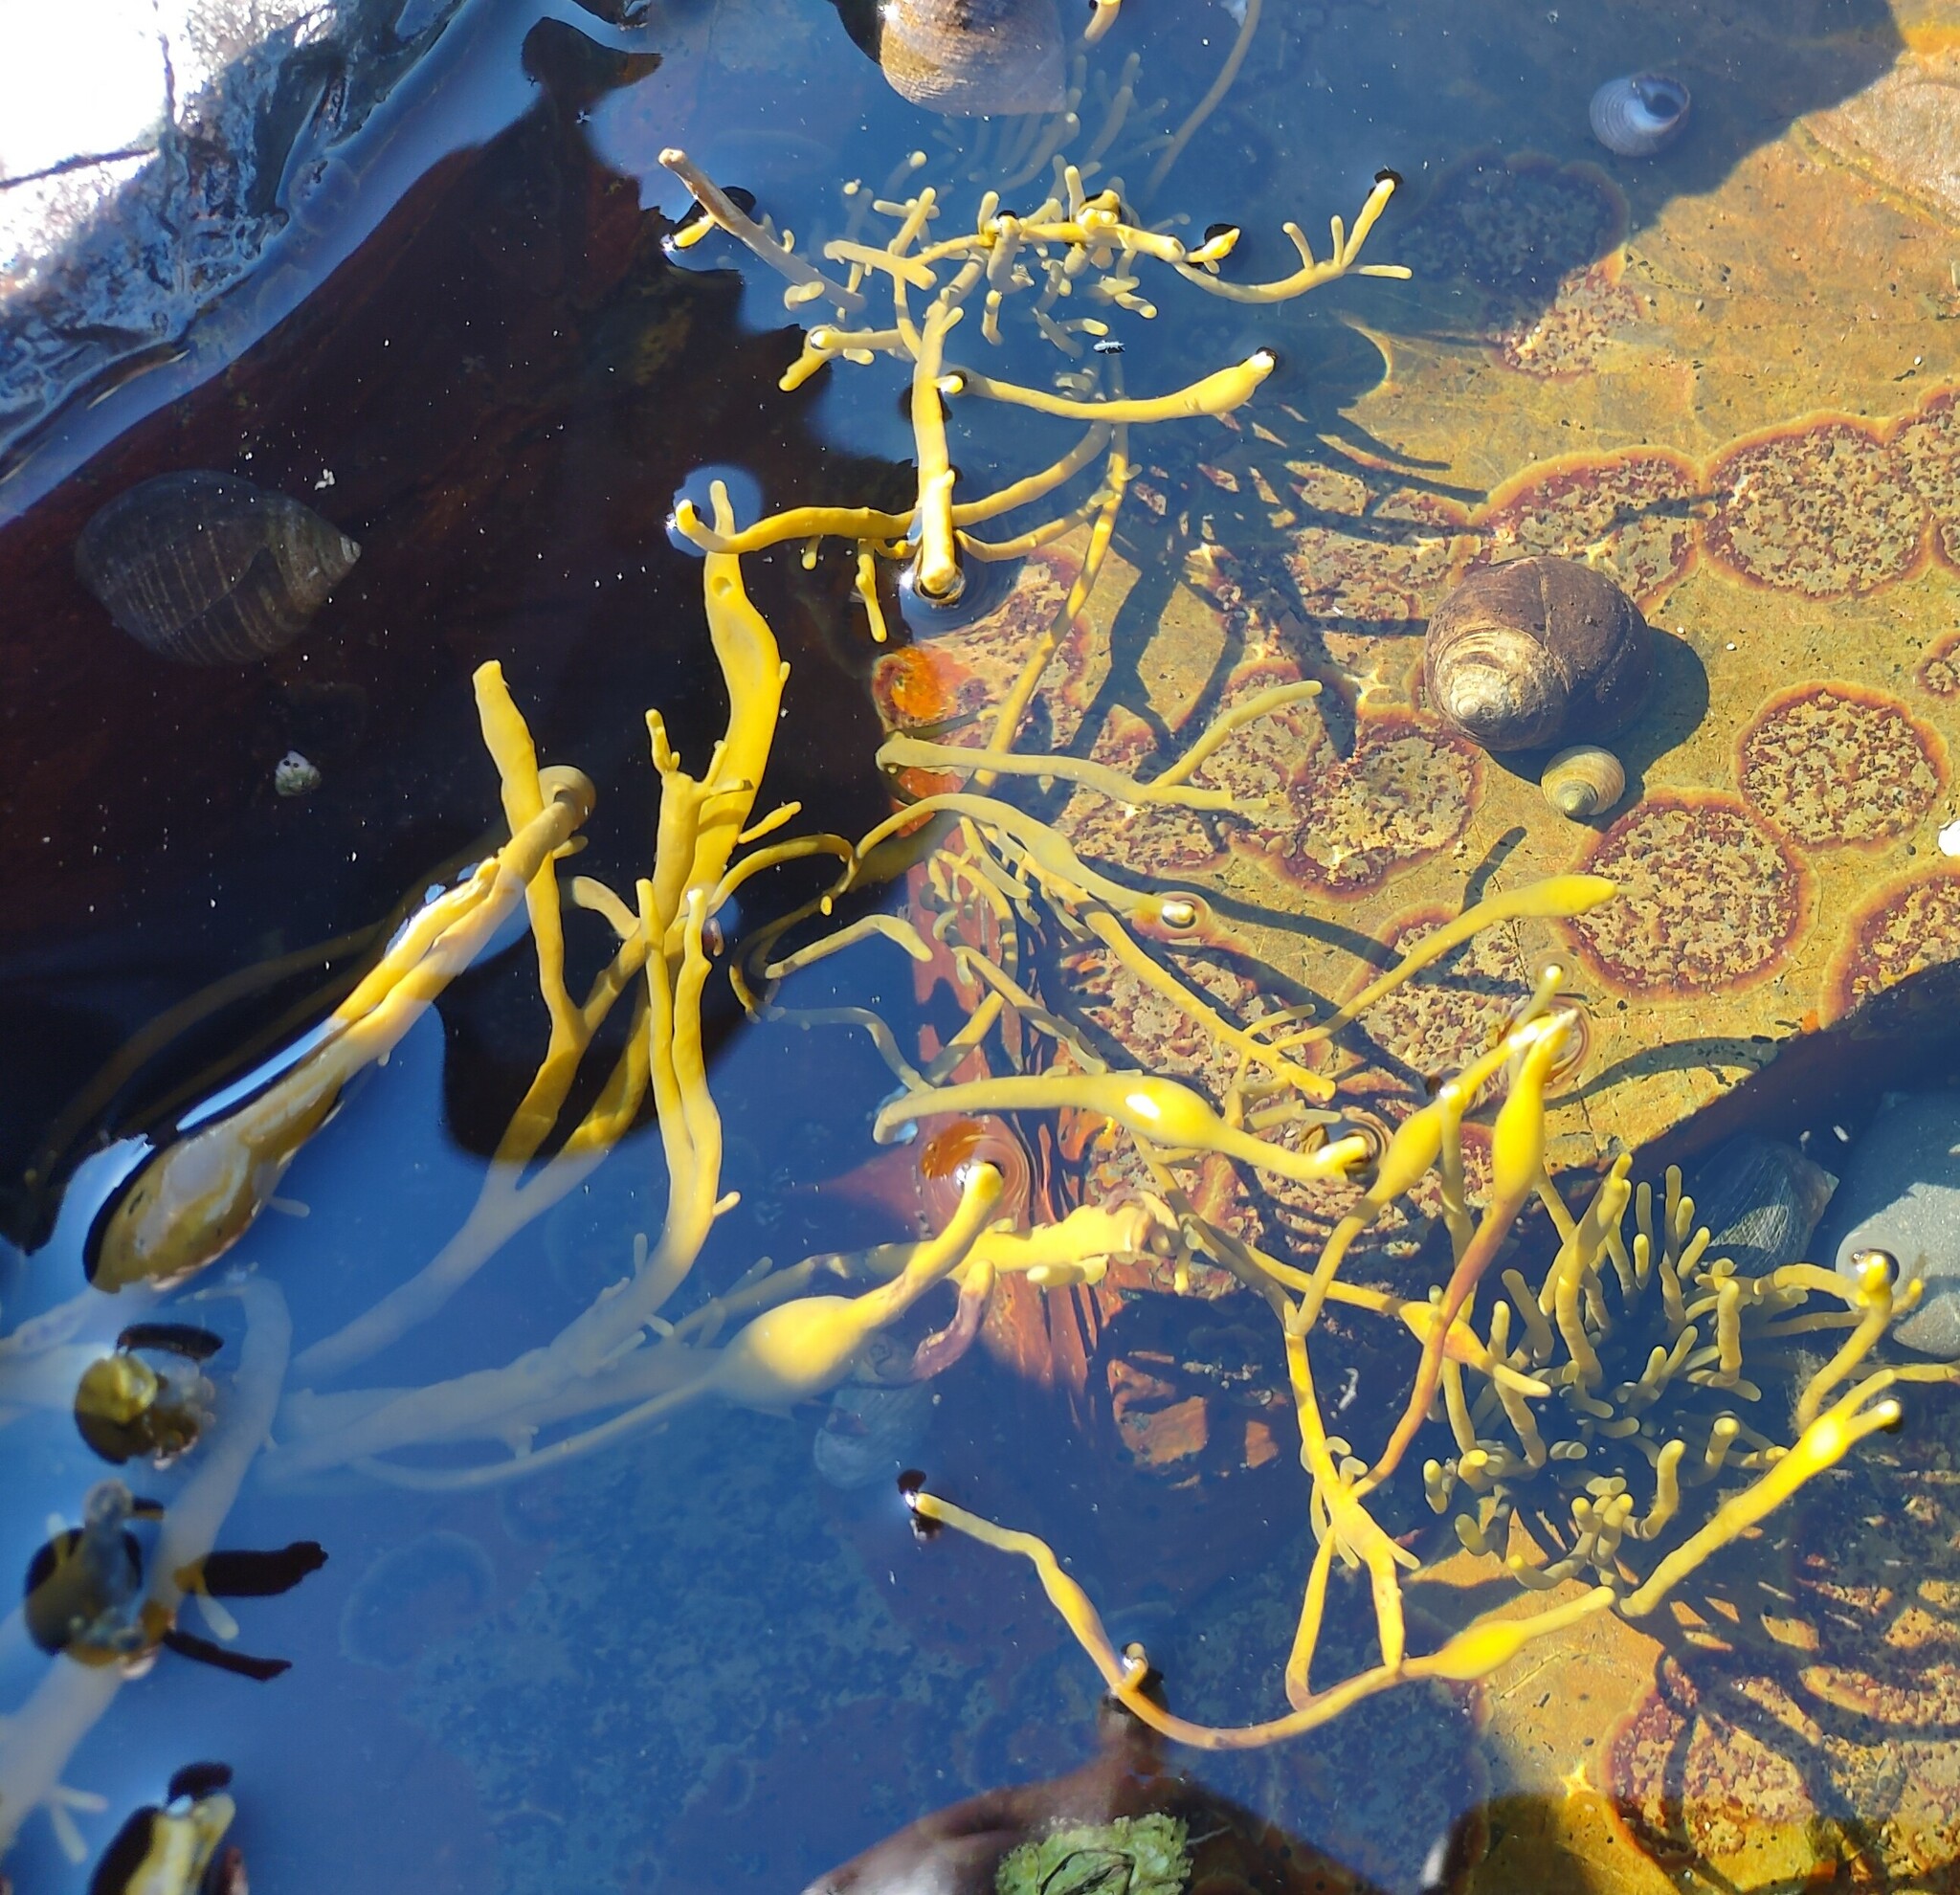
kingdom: Chromista
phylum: Ochrophyta
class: Phaeophyceae
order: Fucales
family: Fucaceae
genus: Ascophyllum
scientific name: Ascophyllum nodosum
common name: Knotted wrack
